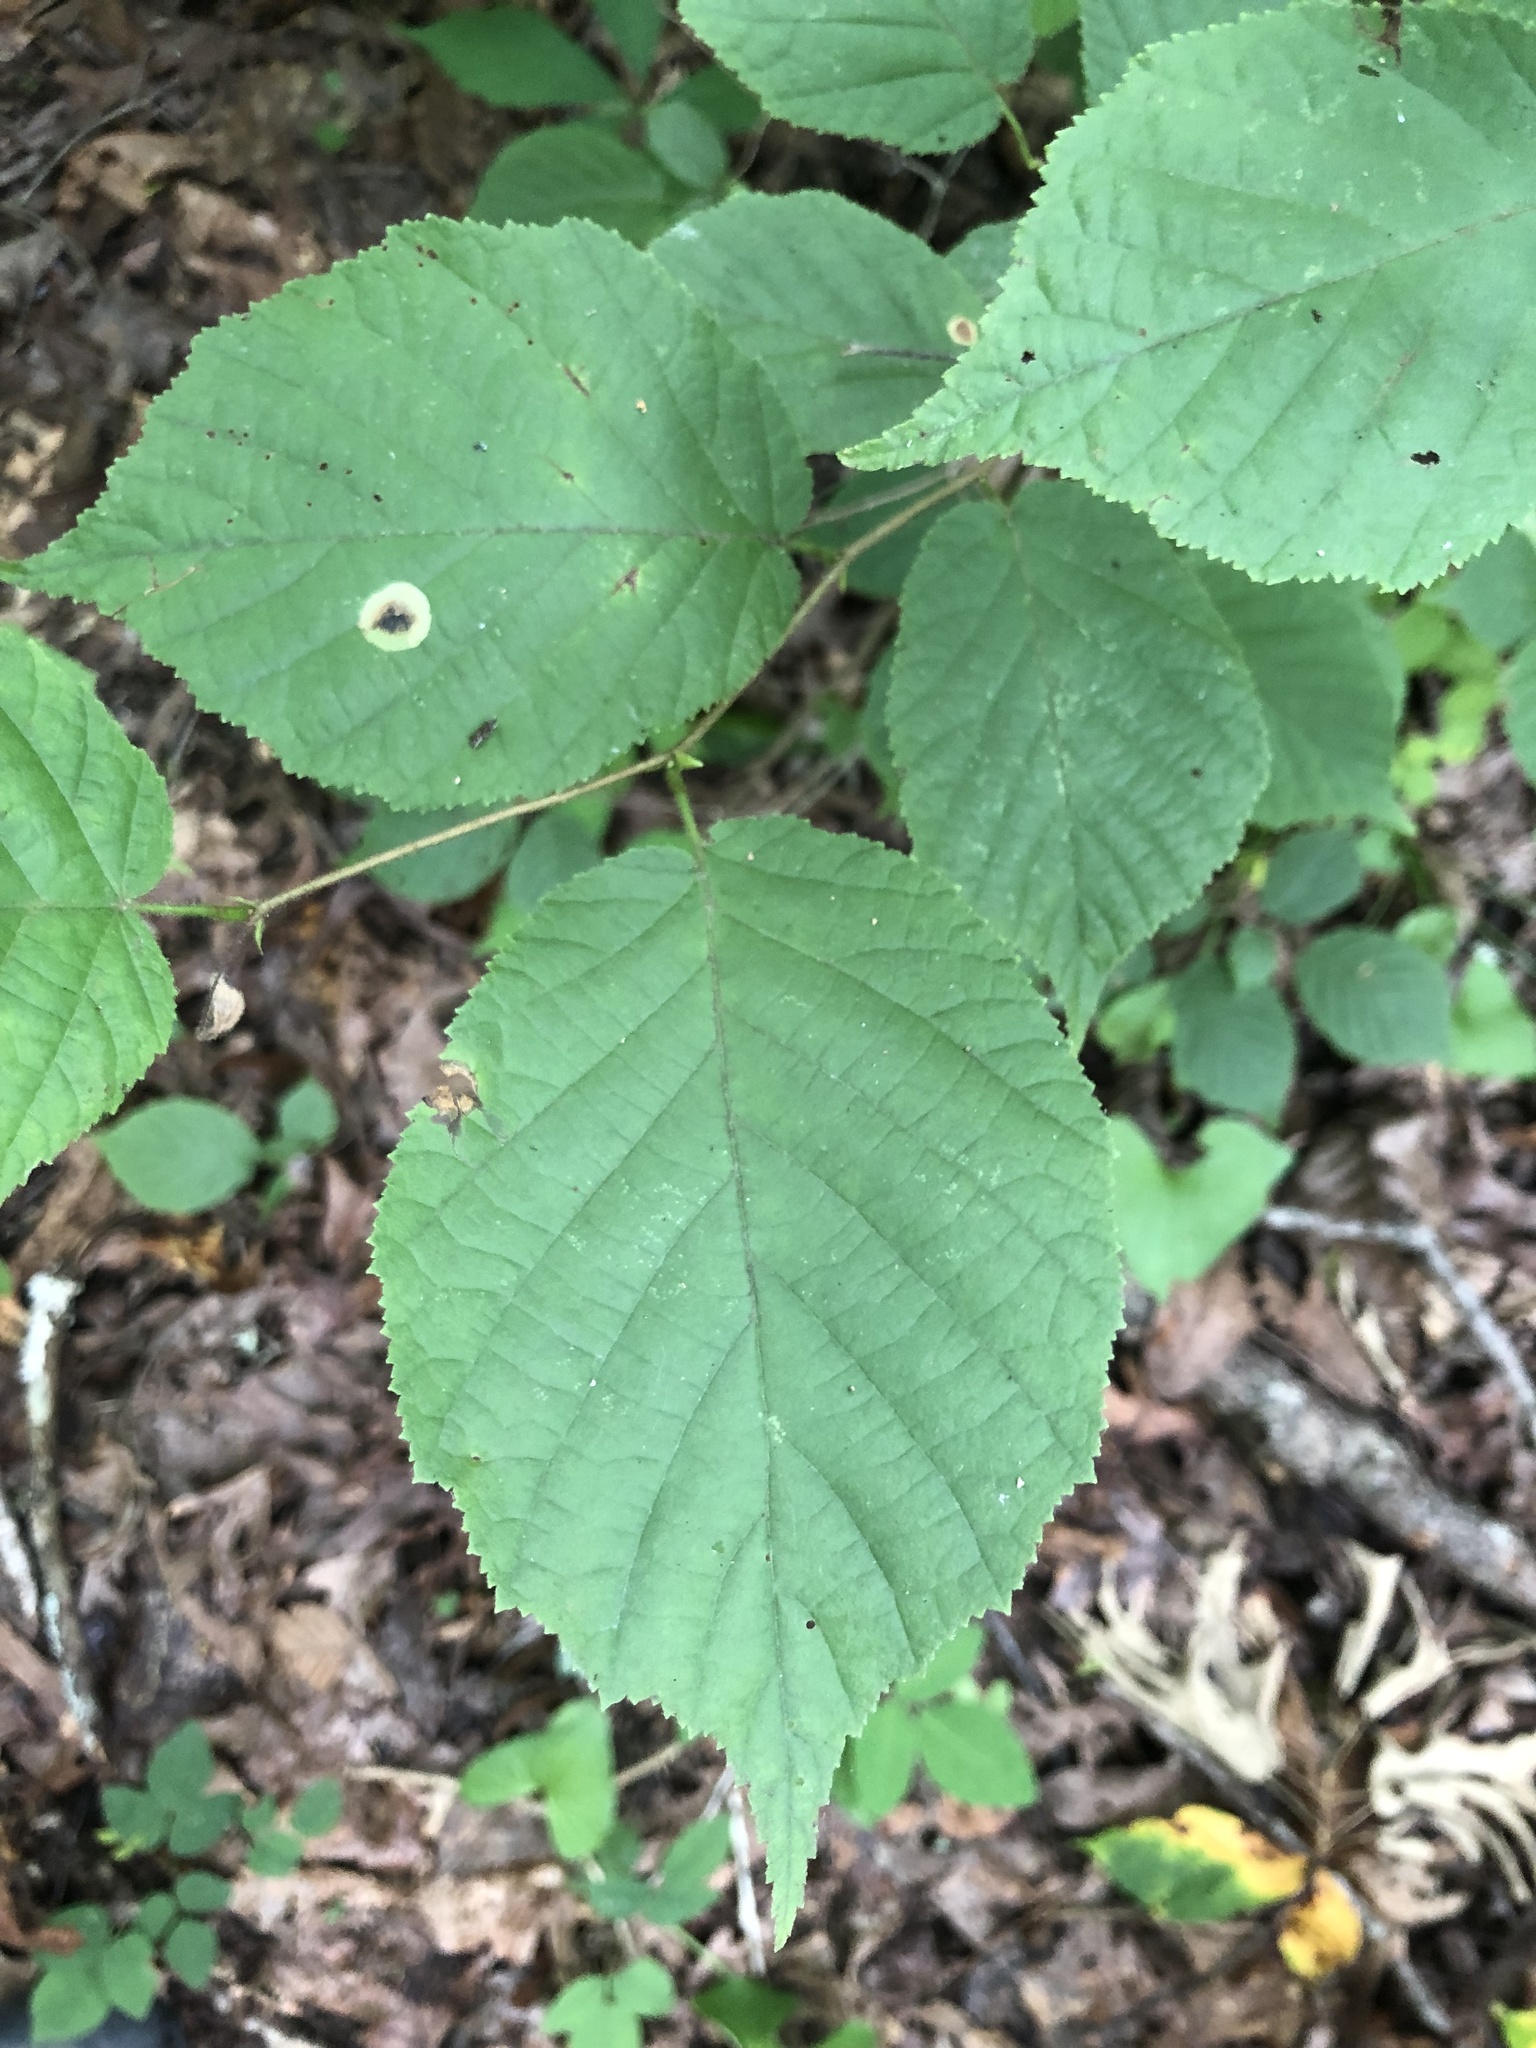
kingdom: Plantae
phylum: Tracheophyta
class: Magnoliopsida
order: Fagales
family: Betulaceae
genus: Corylus
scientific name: Corylus americana
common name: American hazel
